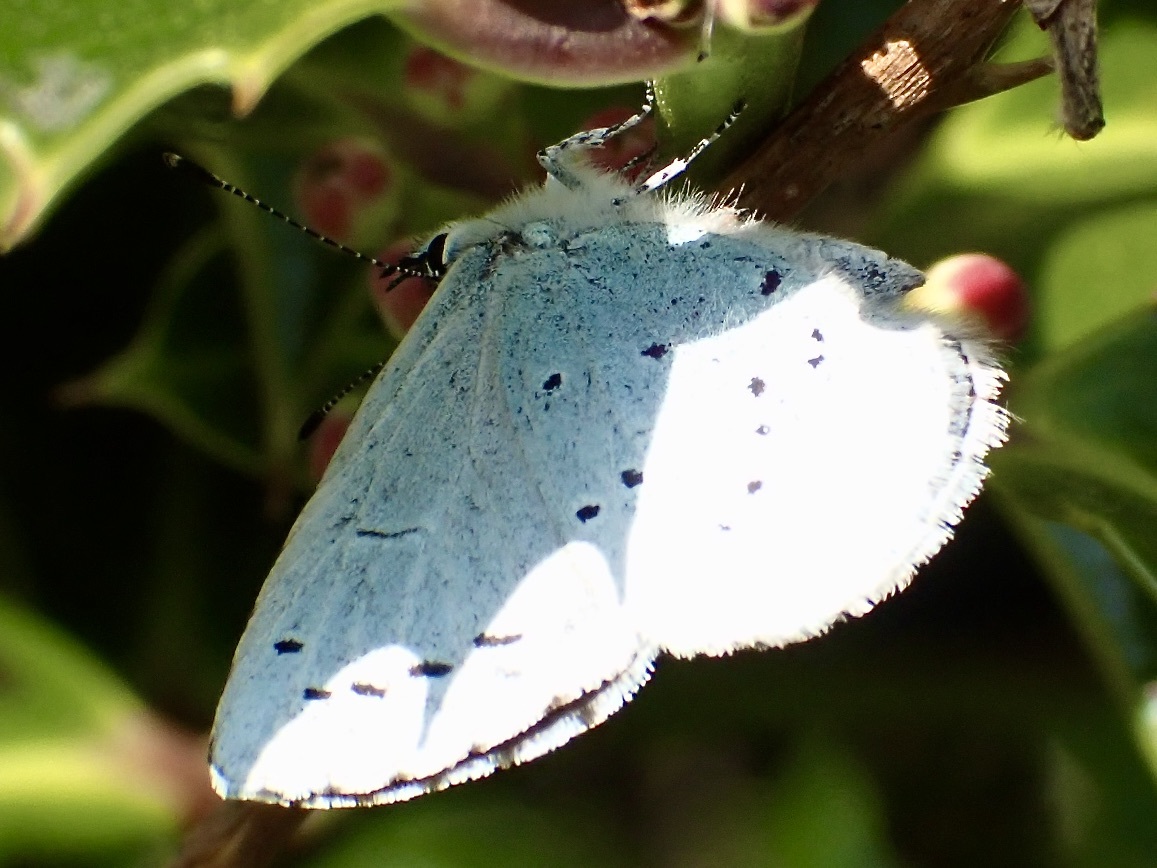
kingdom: Animalia
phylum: Arthropoda
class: Insecta
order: Lepidoptera
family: Lycaenidae
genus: Celastrina
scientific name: Celastrina argiolus
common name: Holly blue
